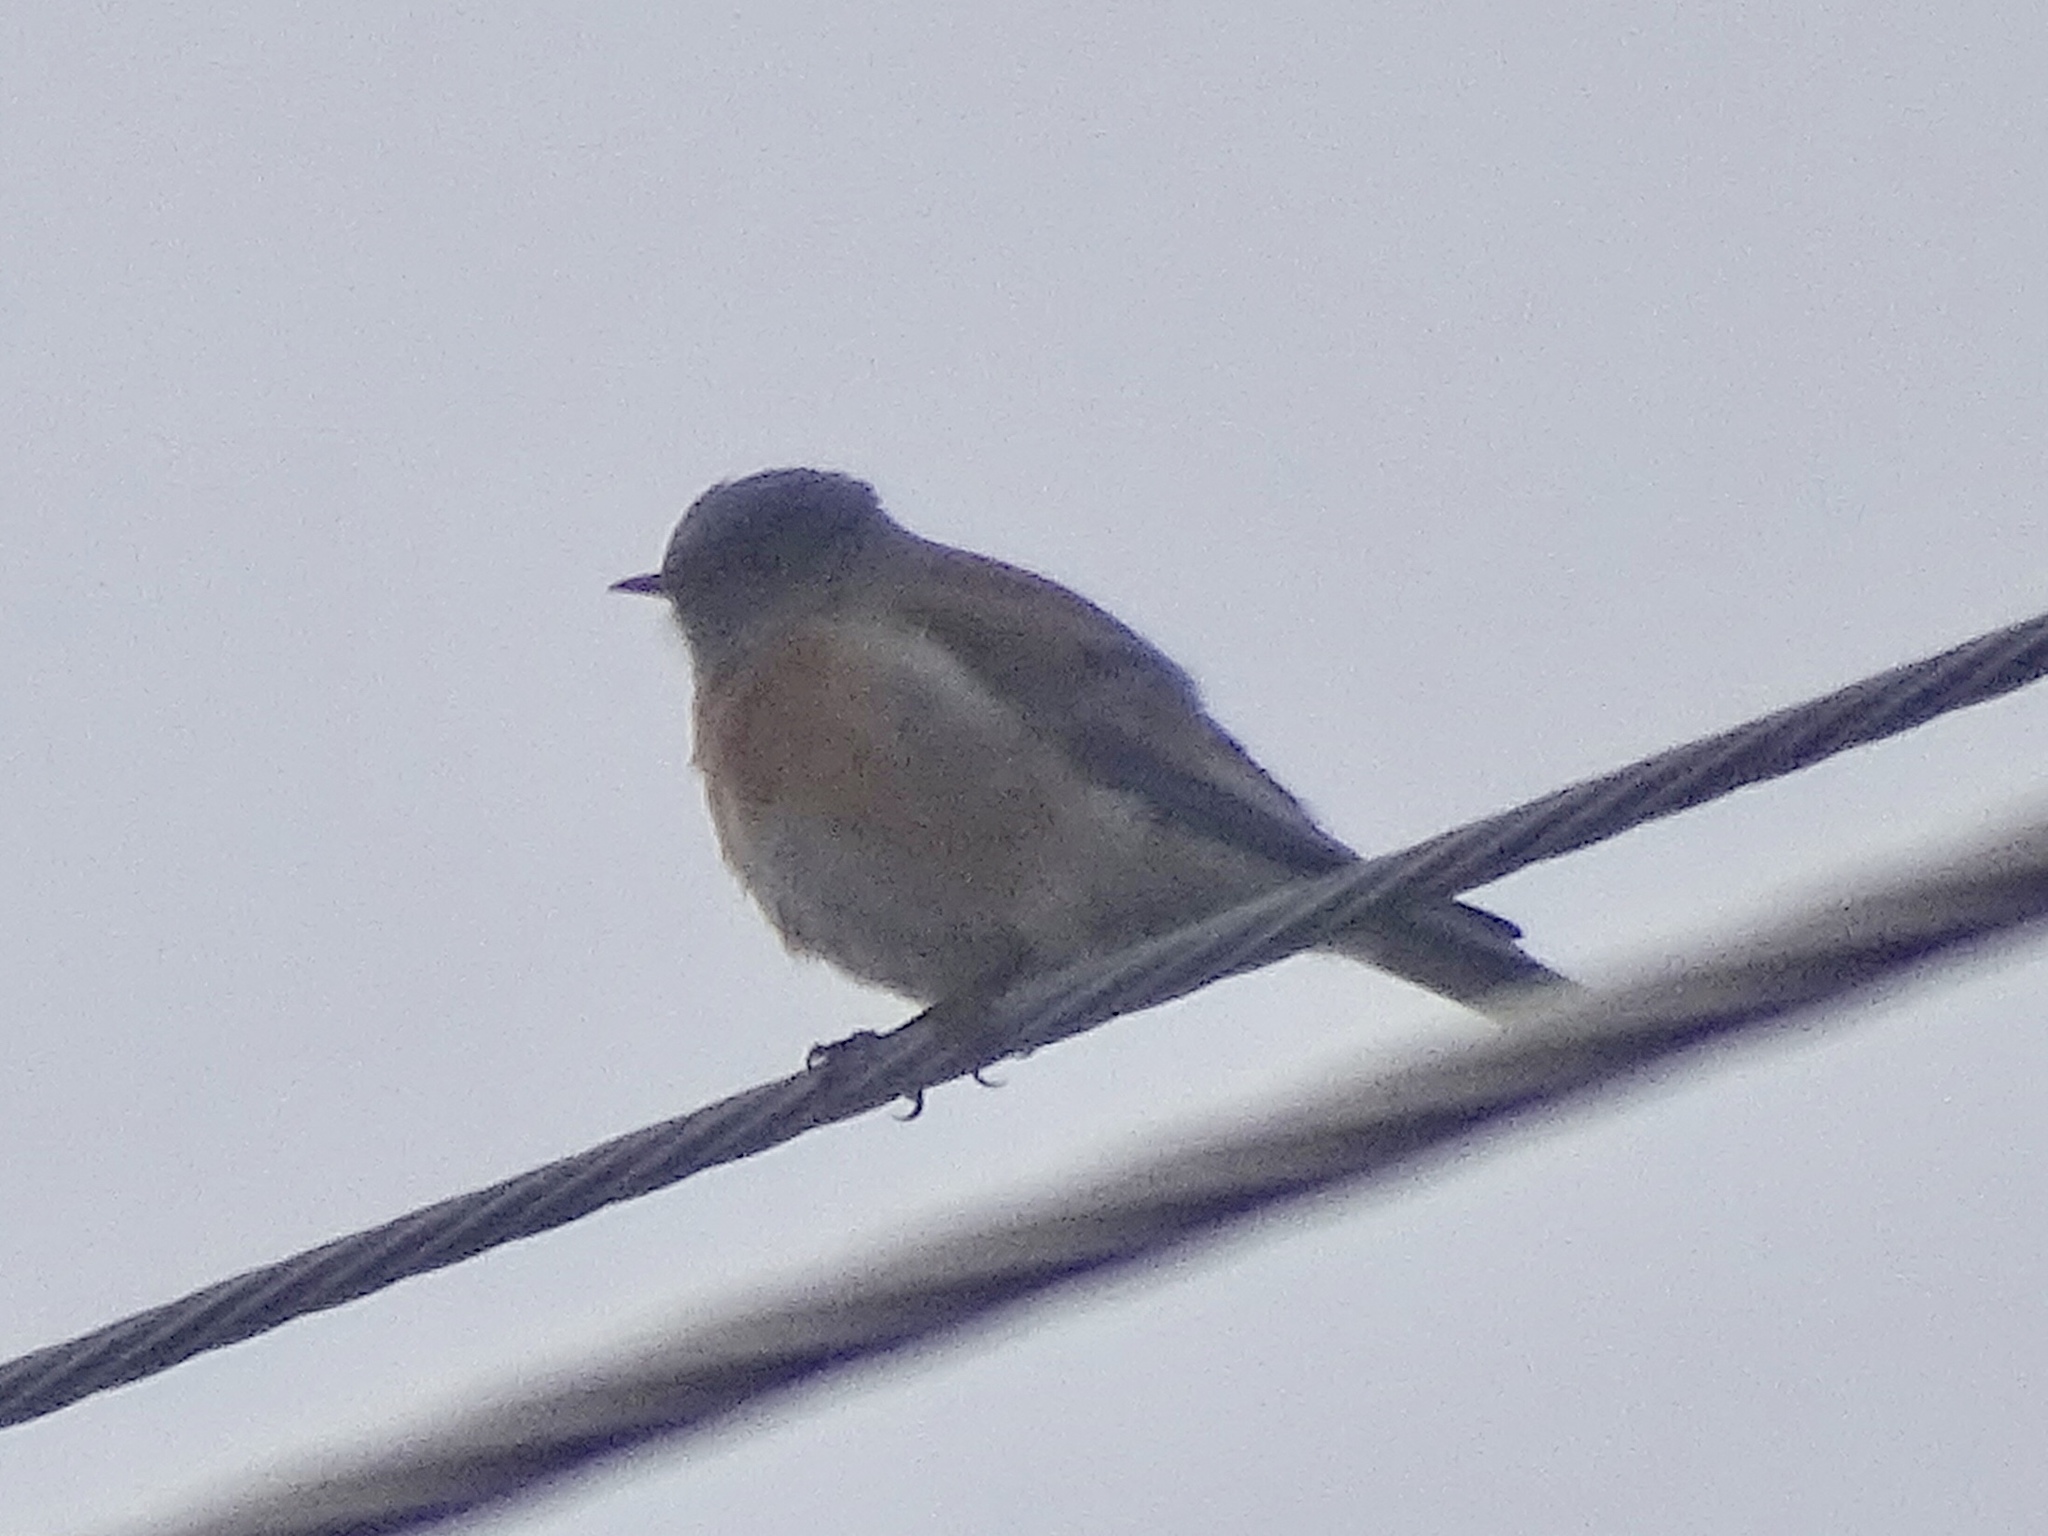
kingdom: Animalia
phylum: Chordata
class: Aves
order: Passeriformes
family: Turdidae
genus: Sialia
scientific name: Sialia mexicana
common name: Western bluebird
